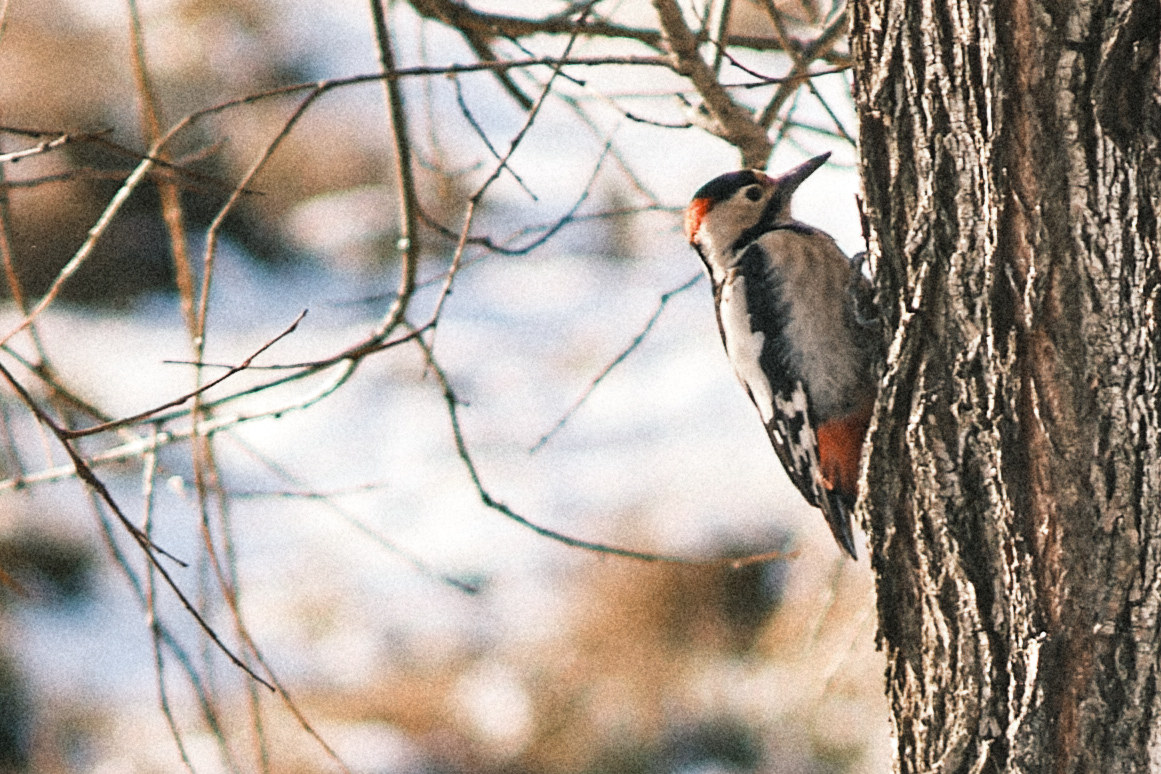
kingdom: Animalia
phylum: Chordata
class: Aves
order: Piciformes
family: Picidae
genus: Dendrocopos
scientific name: Dendrocopos major
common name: Great spotted woodpecker
